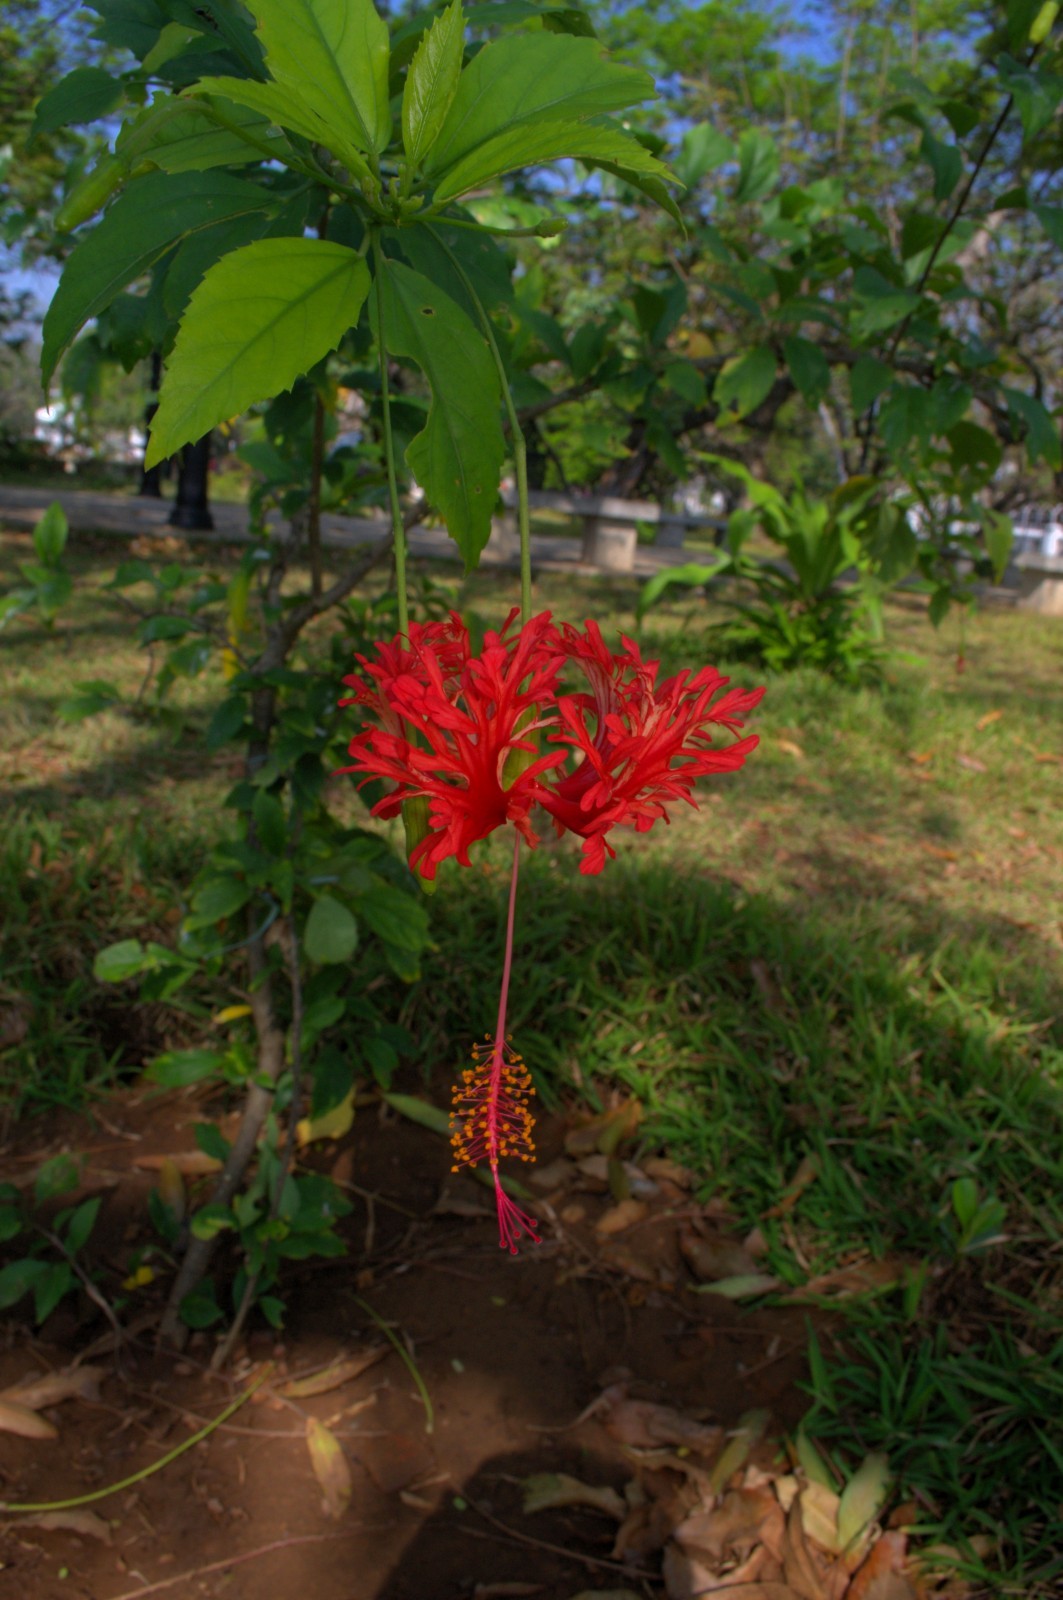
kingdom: Plantae
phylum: Tracheophyta
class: Magnoliopsida
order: Malvales
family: Malvaceae
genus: Hibiscus
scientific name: Hibiscus schizopetalus
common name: Fringed rosemallow
